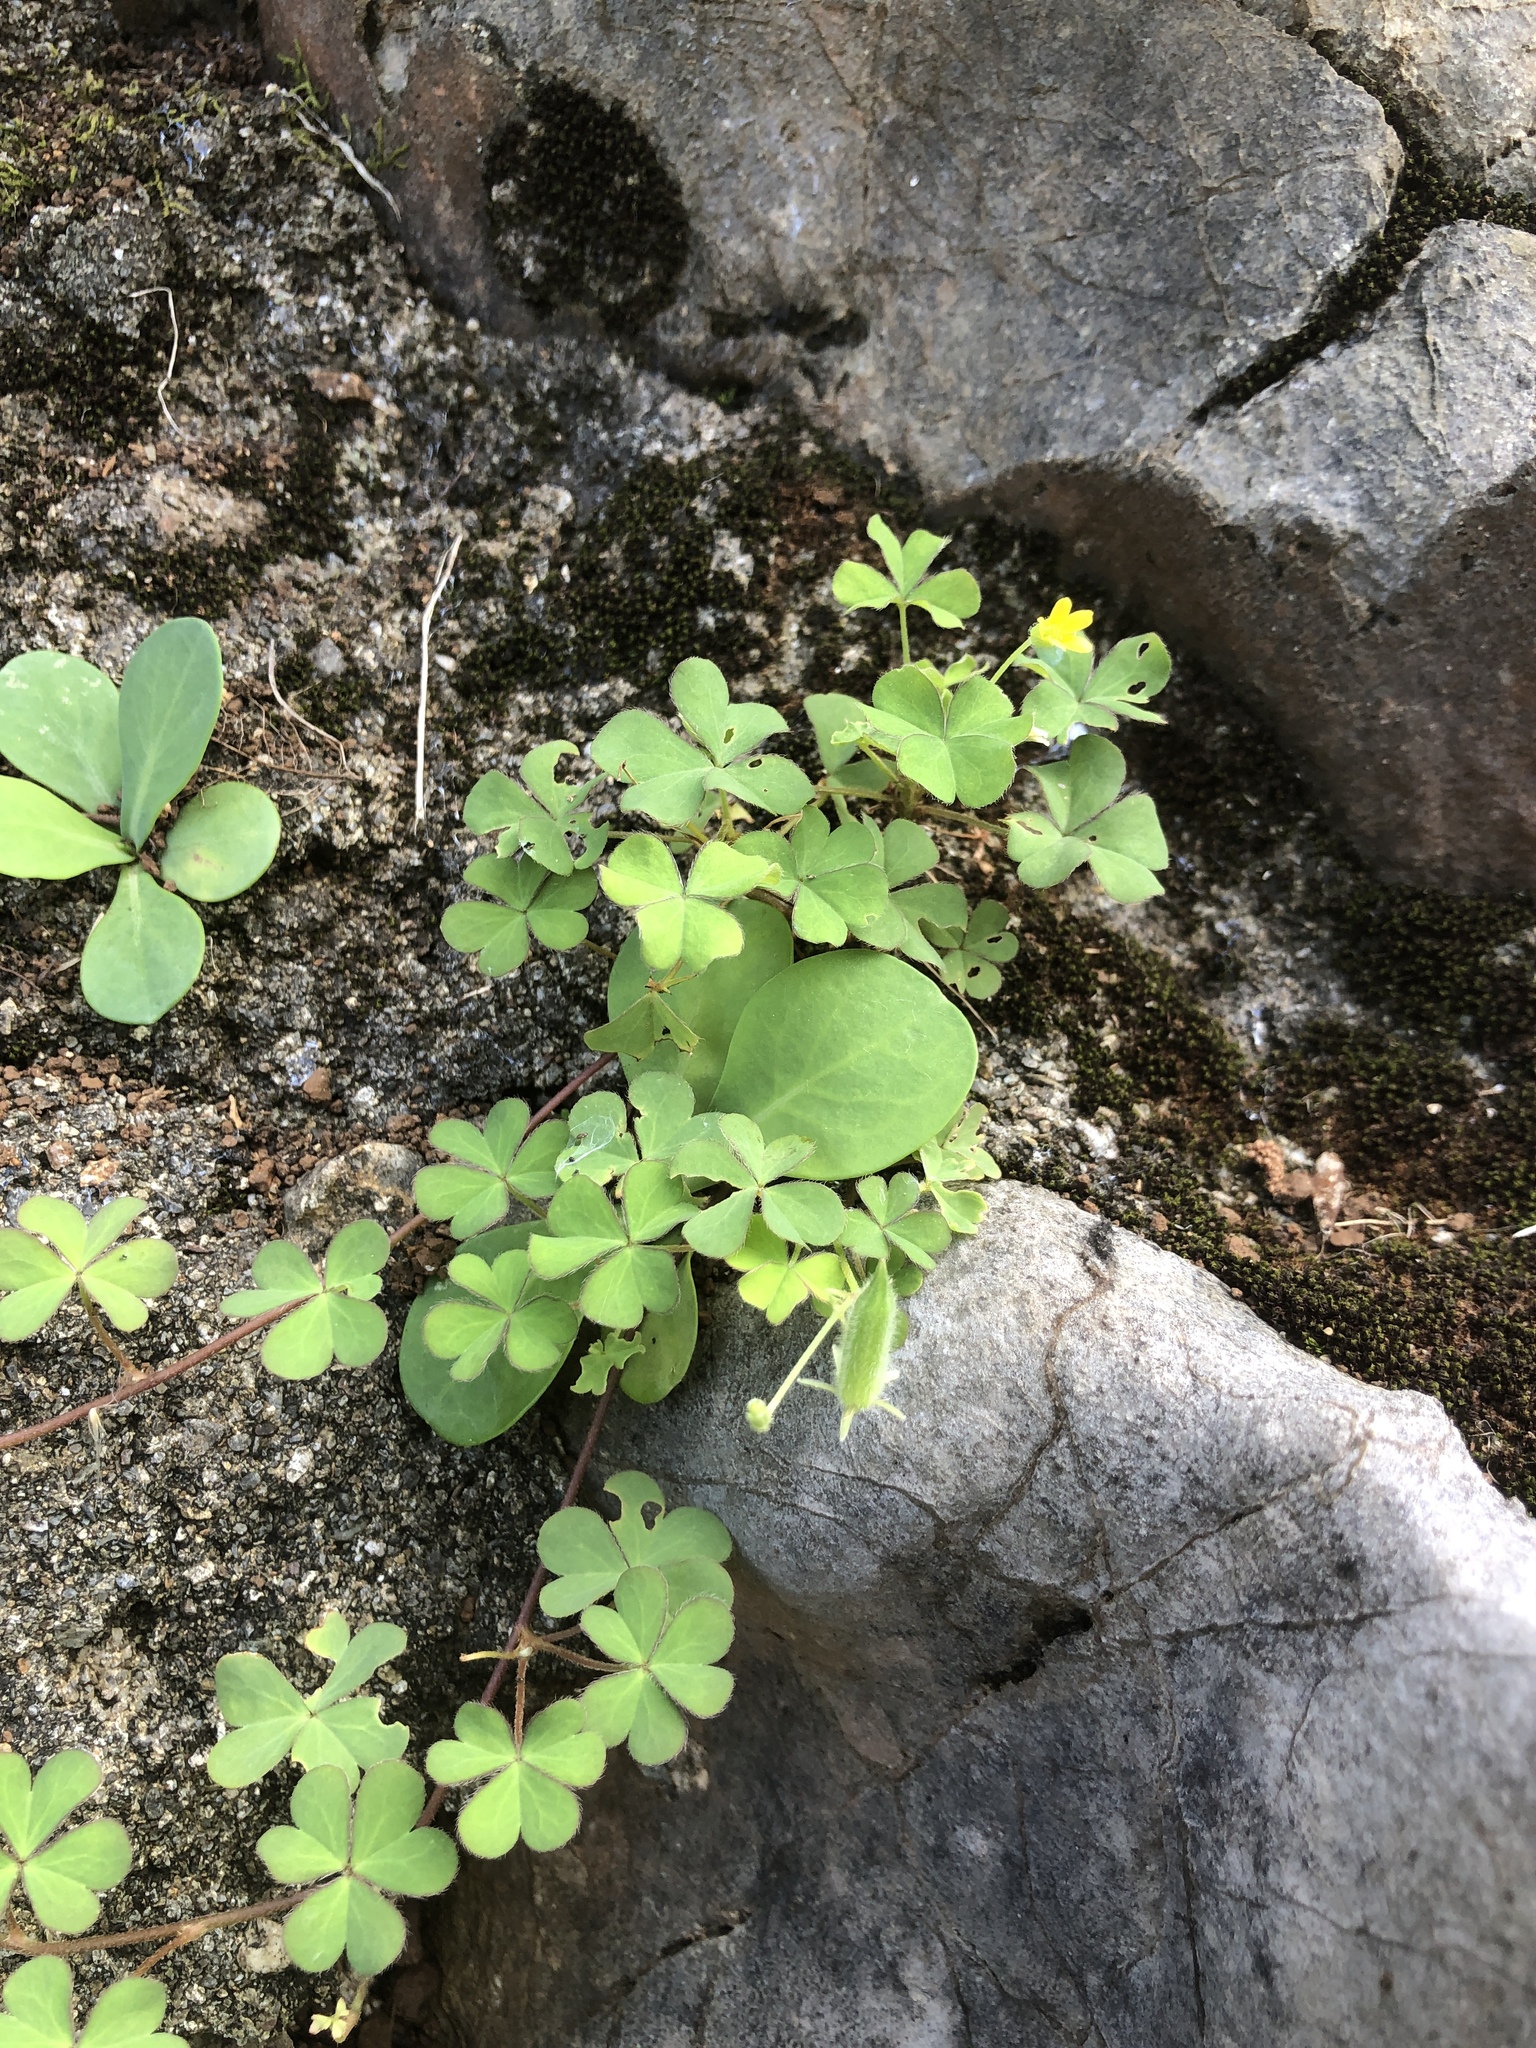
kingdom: Plantae
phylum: Tracheophyta
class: Magnoliopsida
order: Oxalidales
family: Oxalidaceae
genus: Oxalis
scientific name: Oxalis corniculata
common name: Procumbent yellow-sorrel
